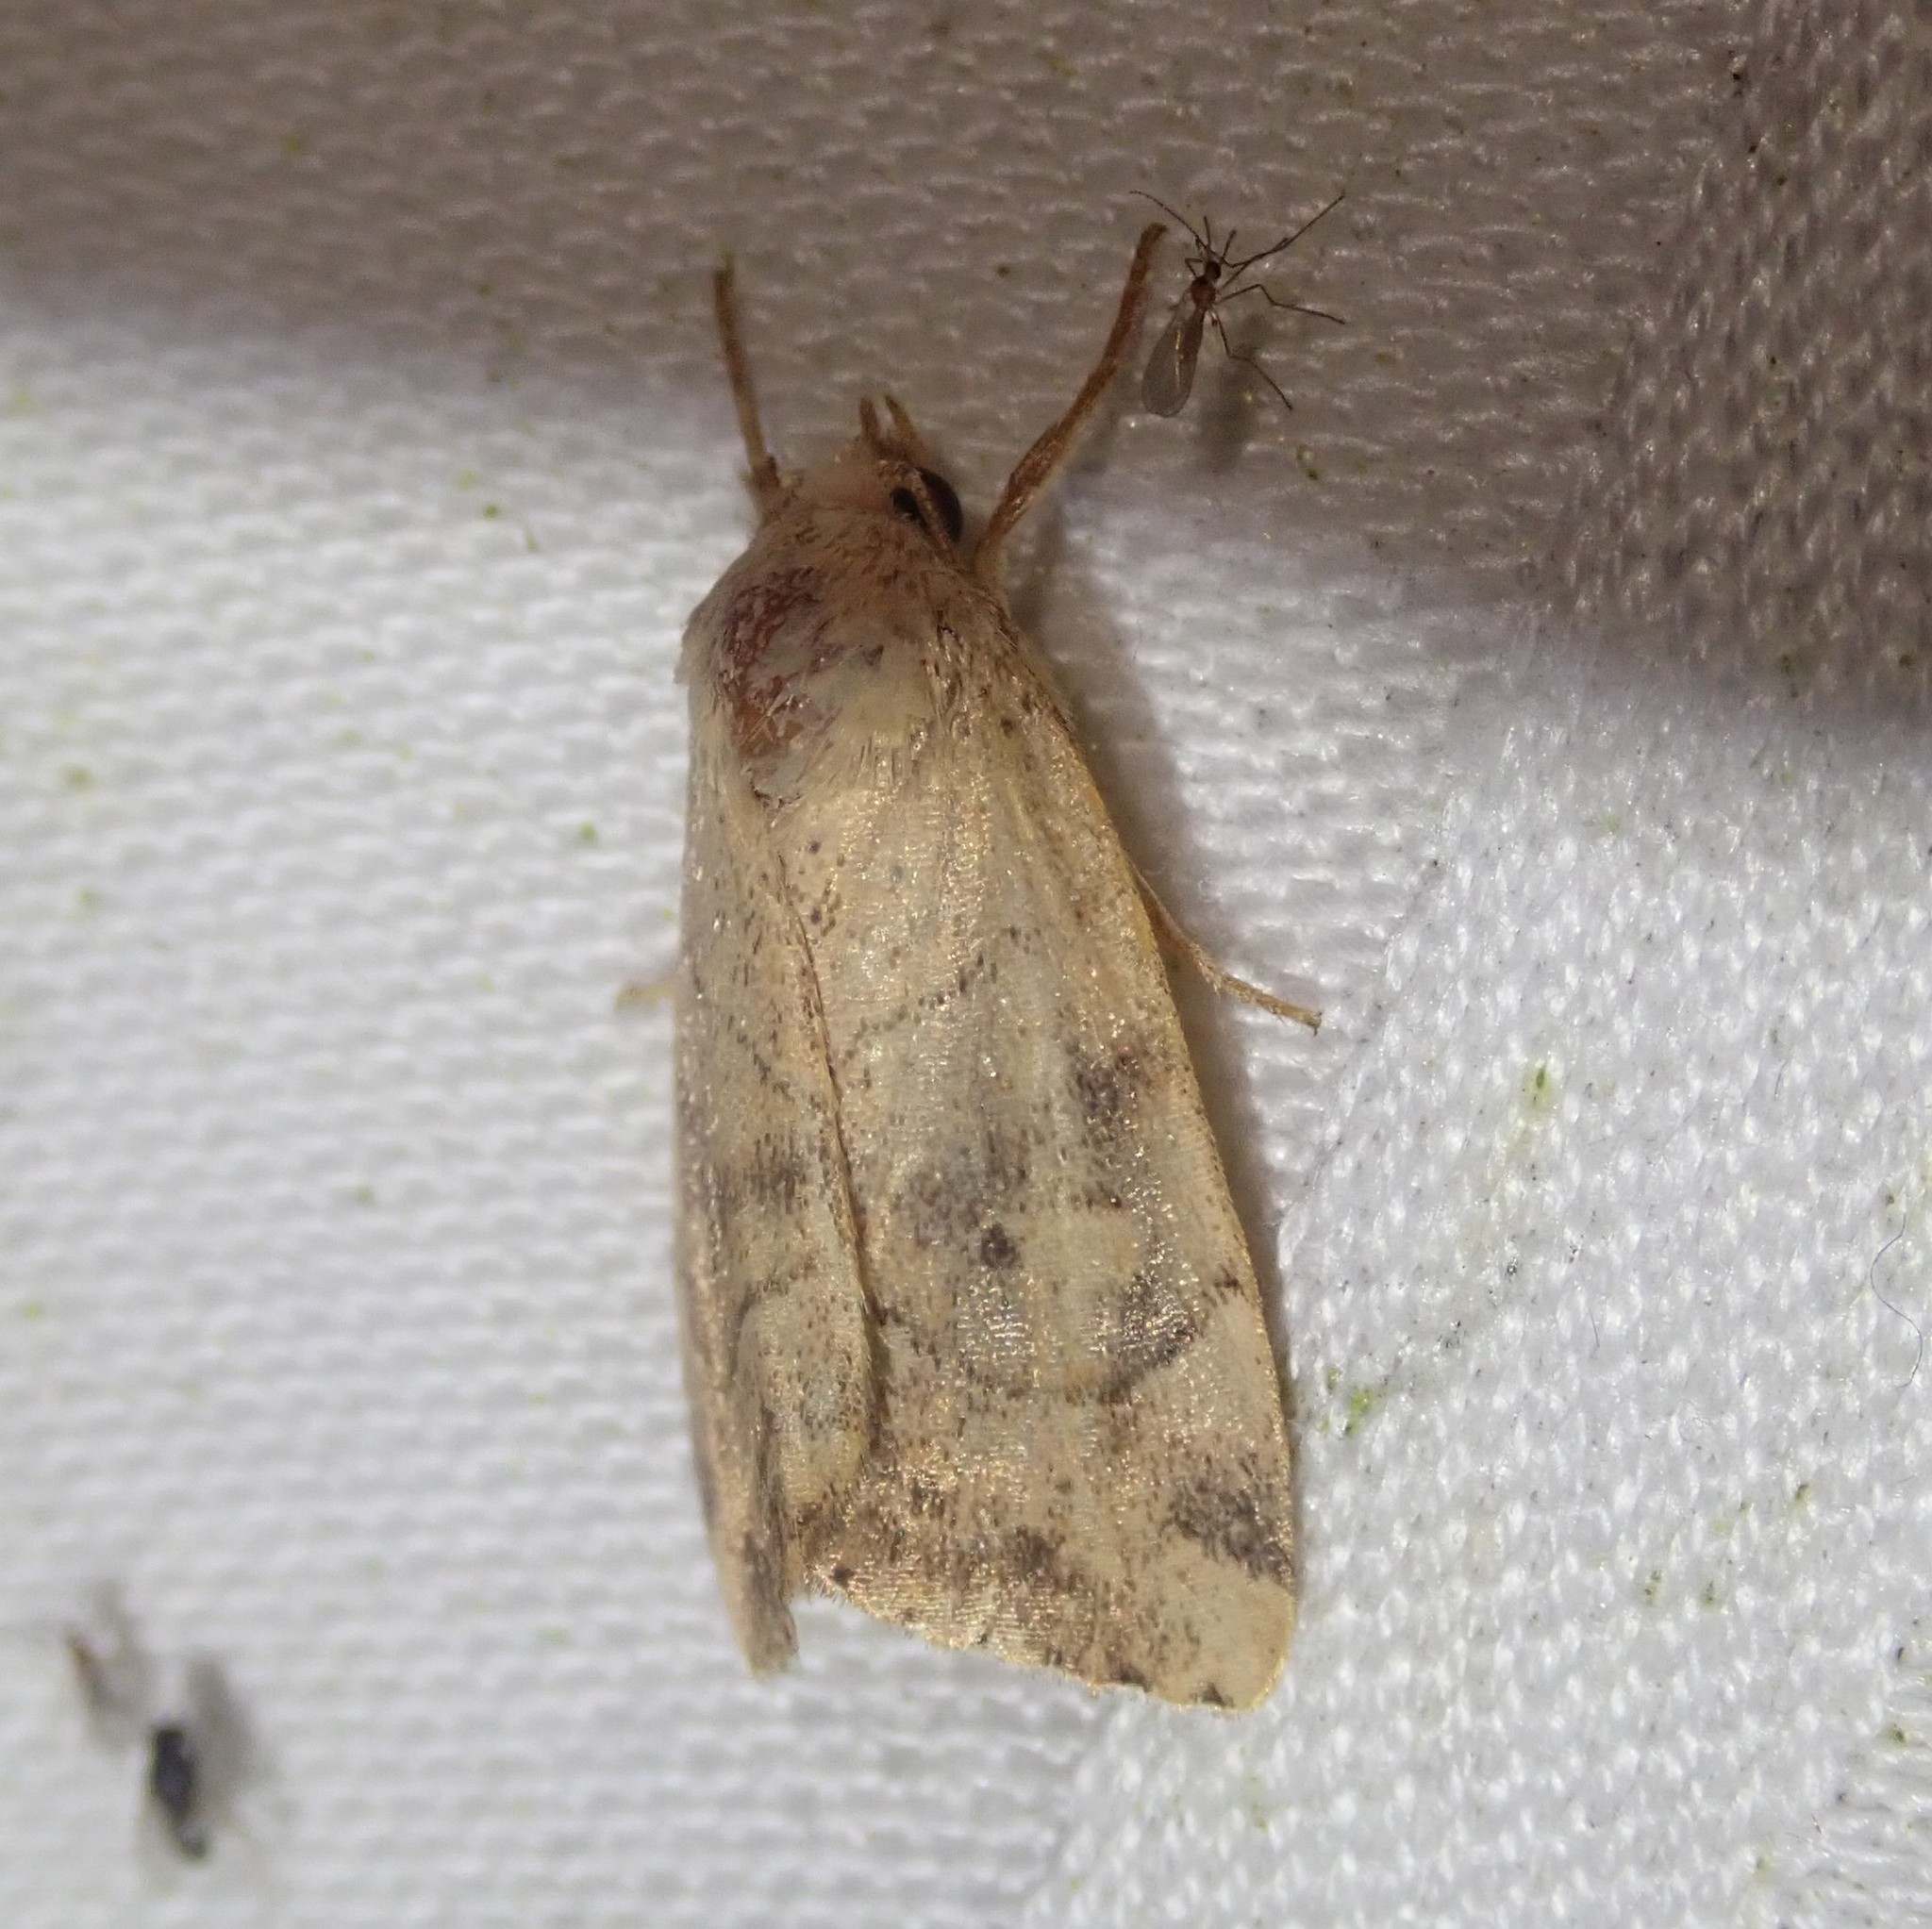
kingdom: Animalia
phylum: Arthropoda
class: Insecta
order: Lepidoptera
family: Noctuidae
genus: Cosmia
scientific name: Cosmia trapezina
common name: Dun-bar
